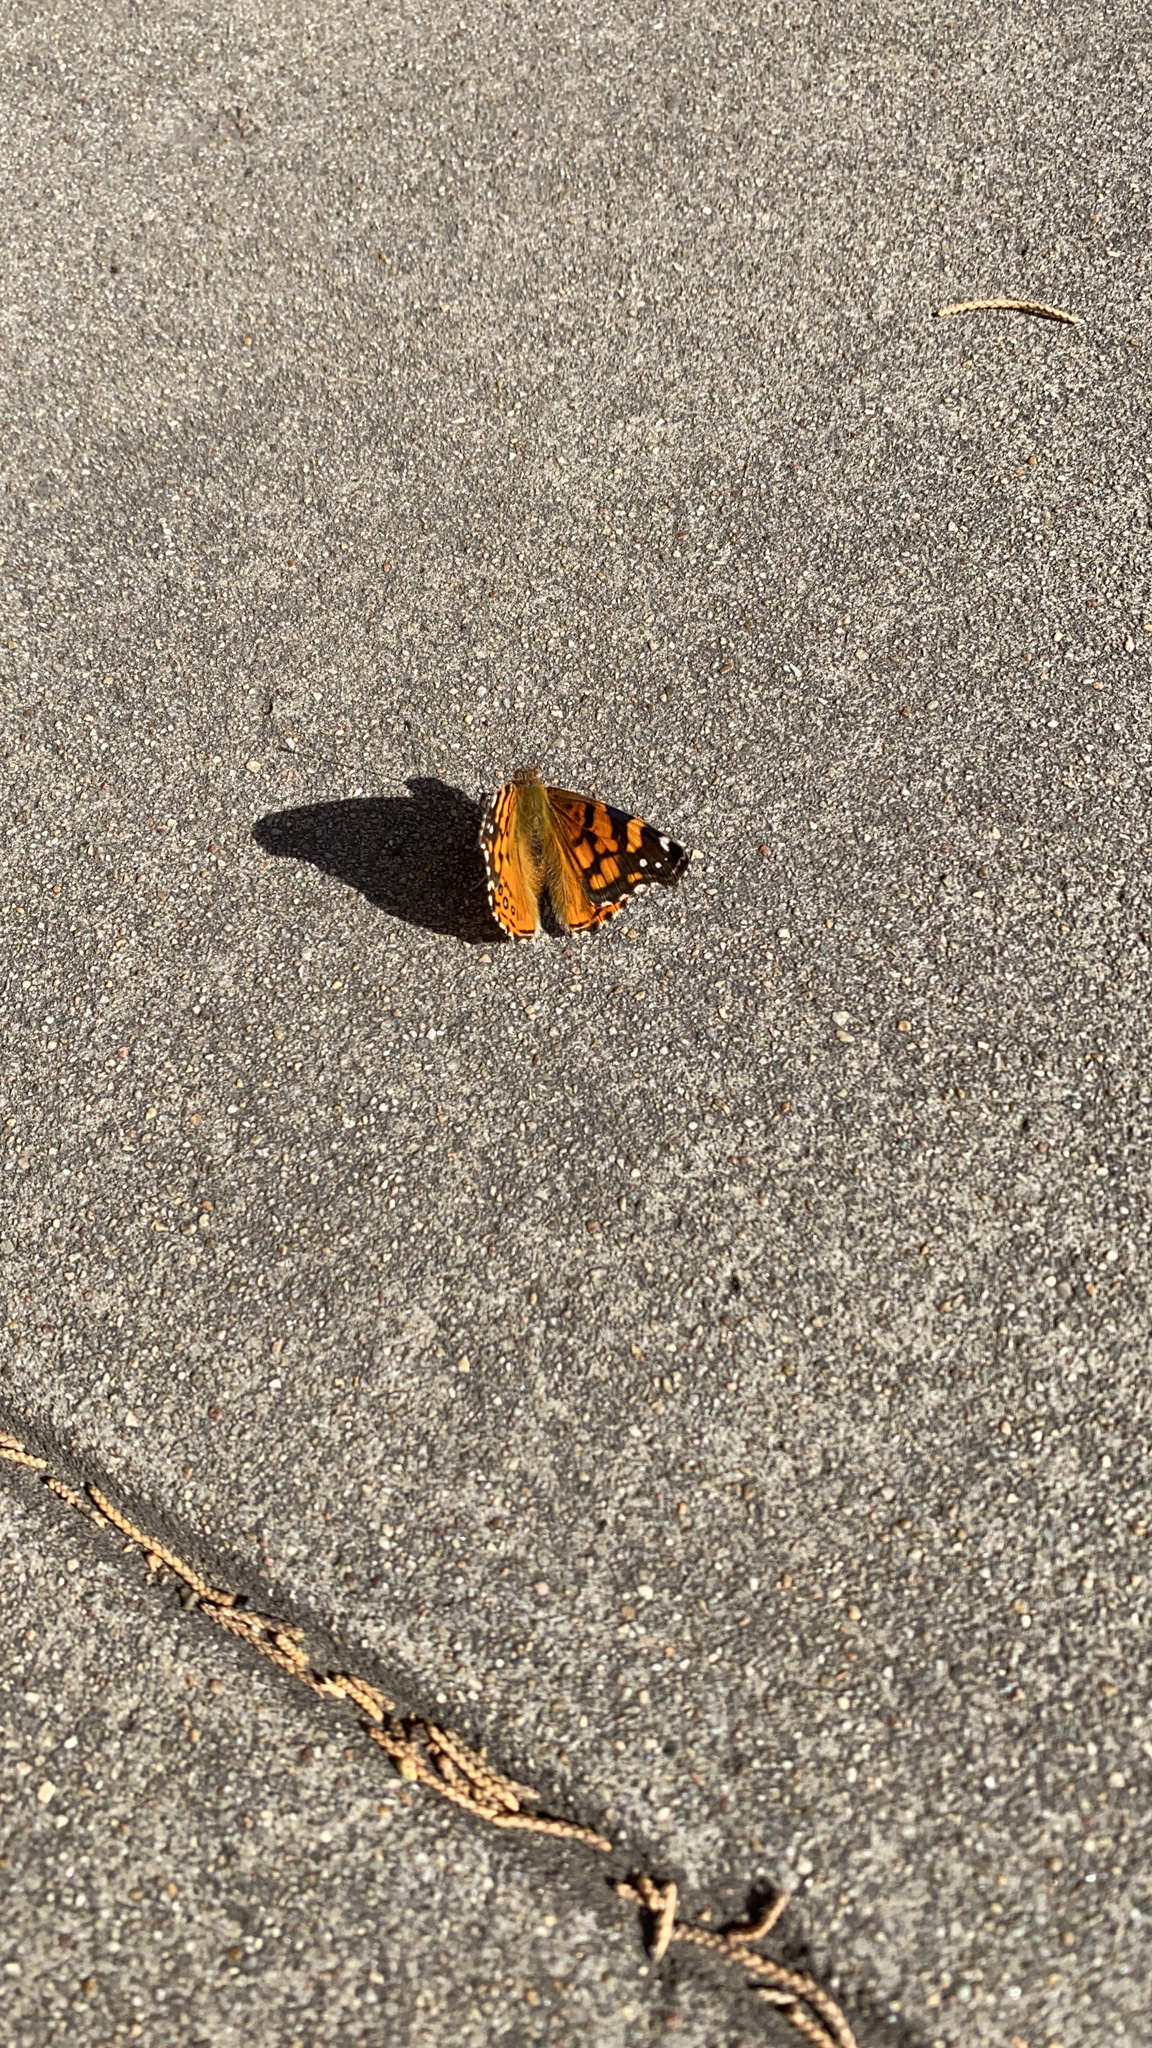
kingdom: Animalia
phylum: Arthropoda
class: Insecta
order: Lepidoptera
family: Nymphalidae
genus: Vanessa
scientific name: Vanessa annabella
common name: West coast lady
